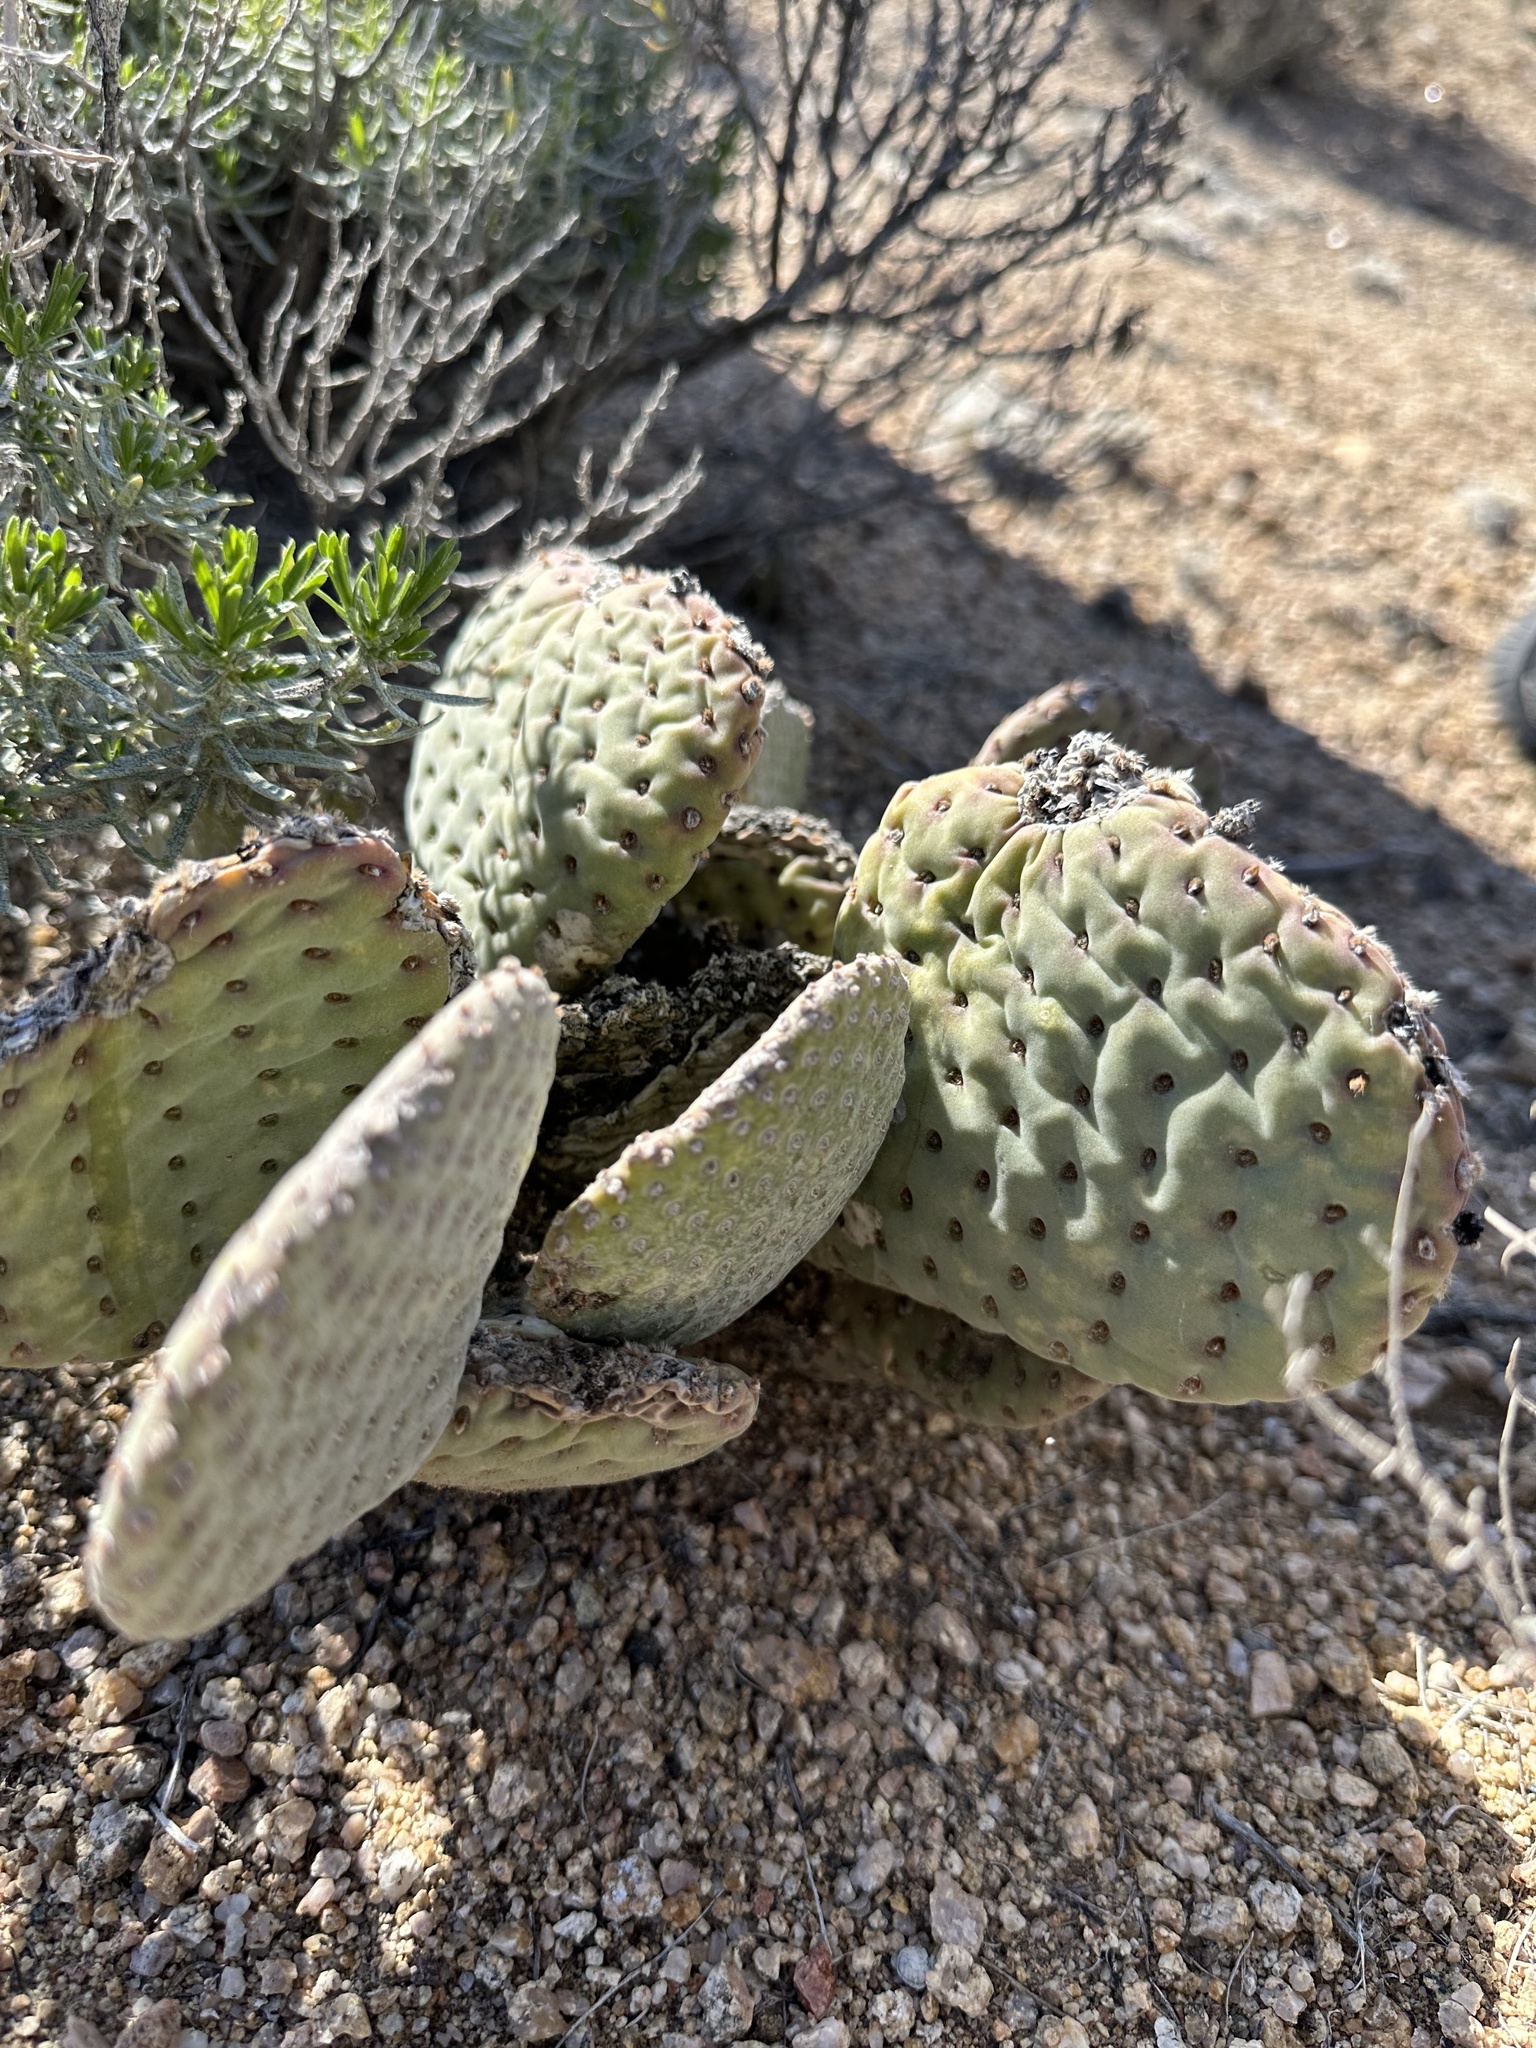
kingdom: Plantae
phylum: Tracheophyta
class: Magnoliopsida
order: Caryophyllales
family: Cactaceae
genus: Opuntia
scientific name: Opuntia basilaris
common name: Beavertail prickly-pear
